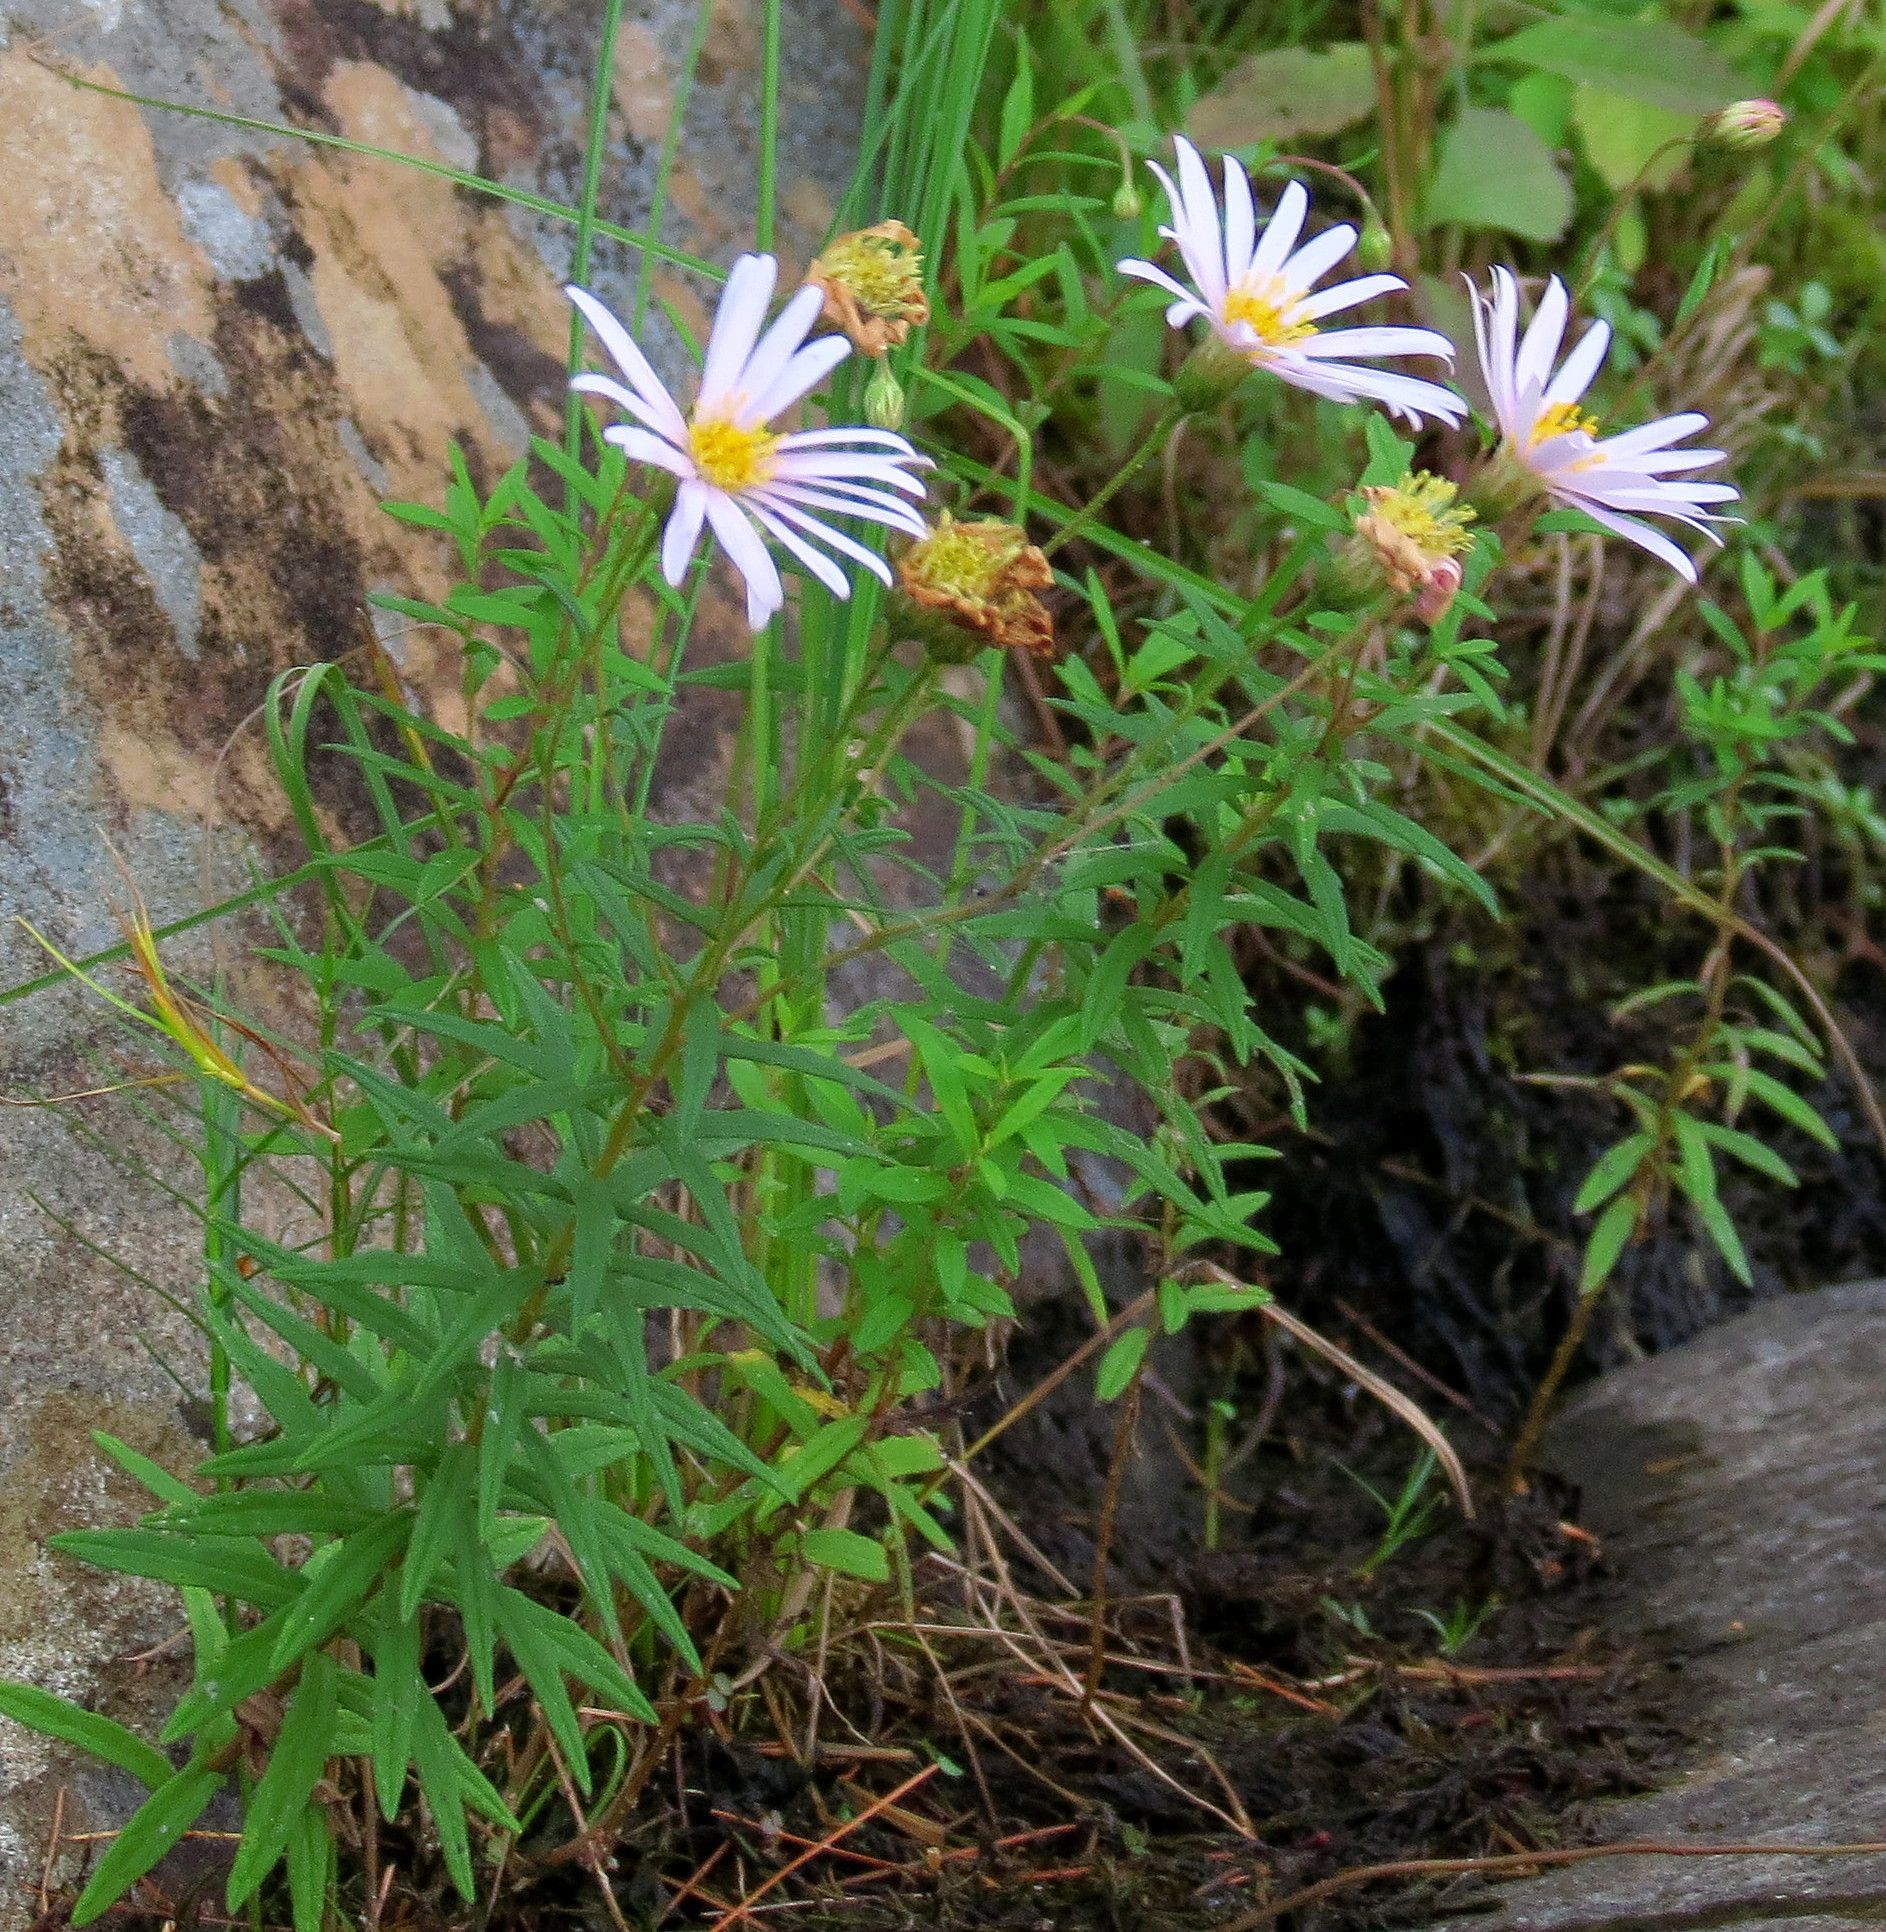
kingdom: Plantae
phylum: Tracheophyta
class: Magnoliopsida
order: Asterales
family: Asteraceae
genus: Oclemena
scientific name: Oclemena nemoralis
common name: Bog aster
